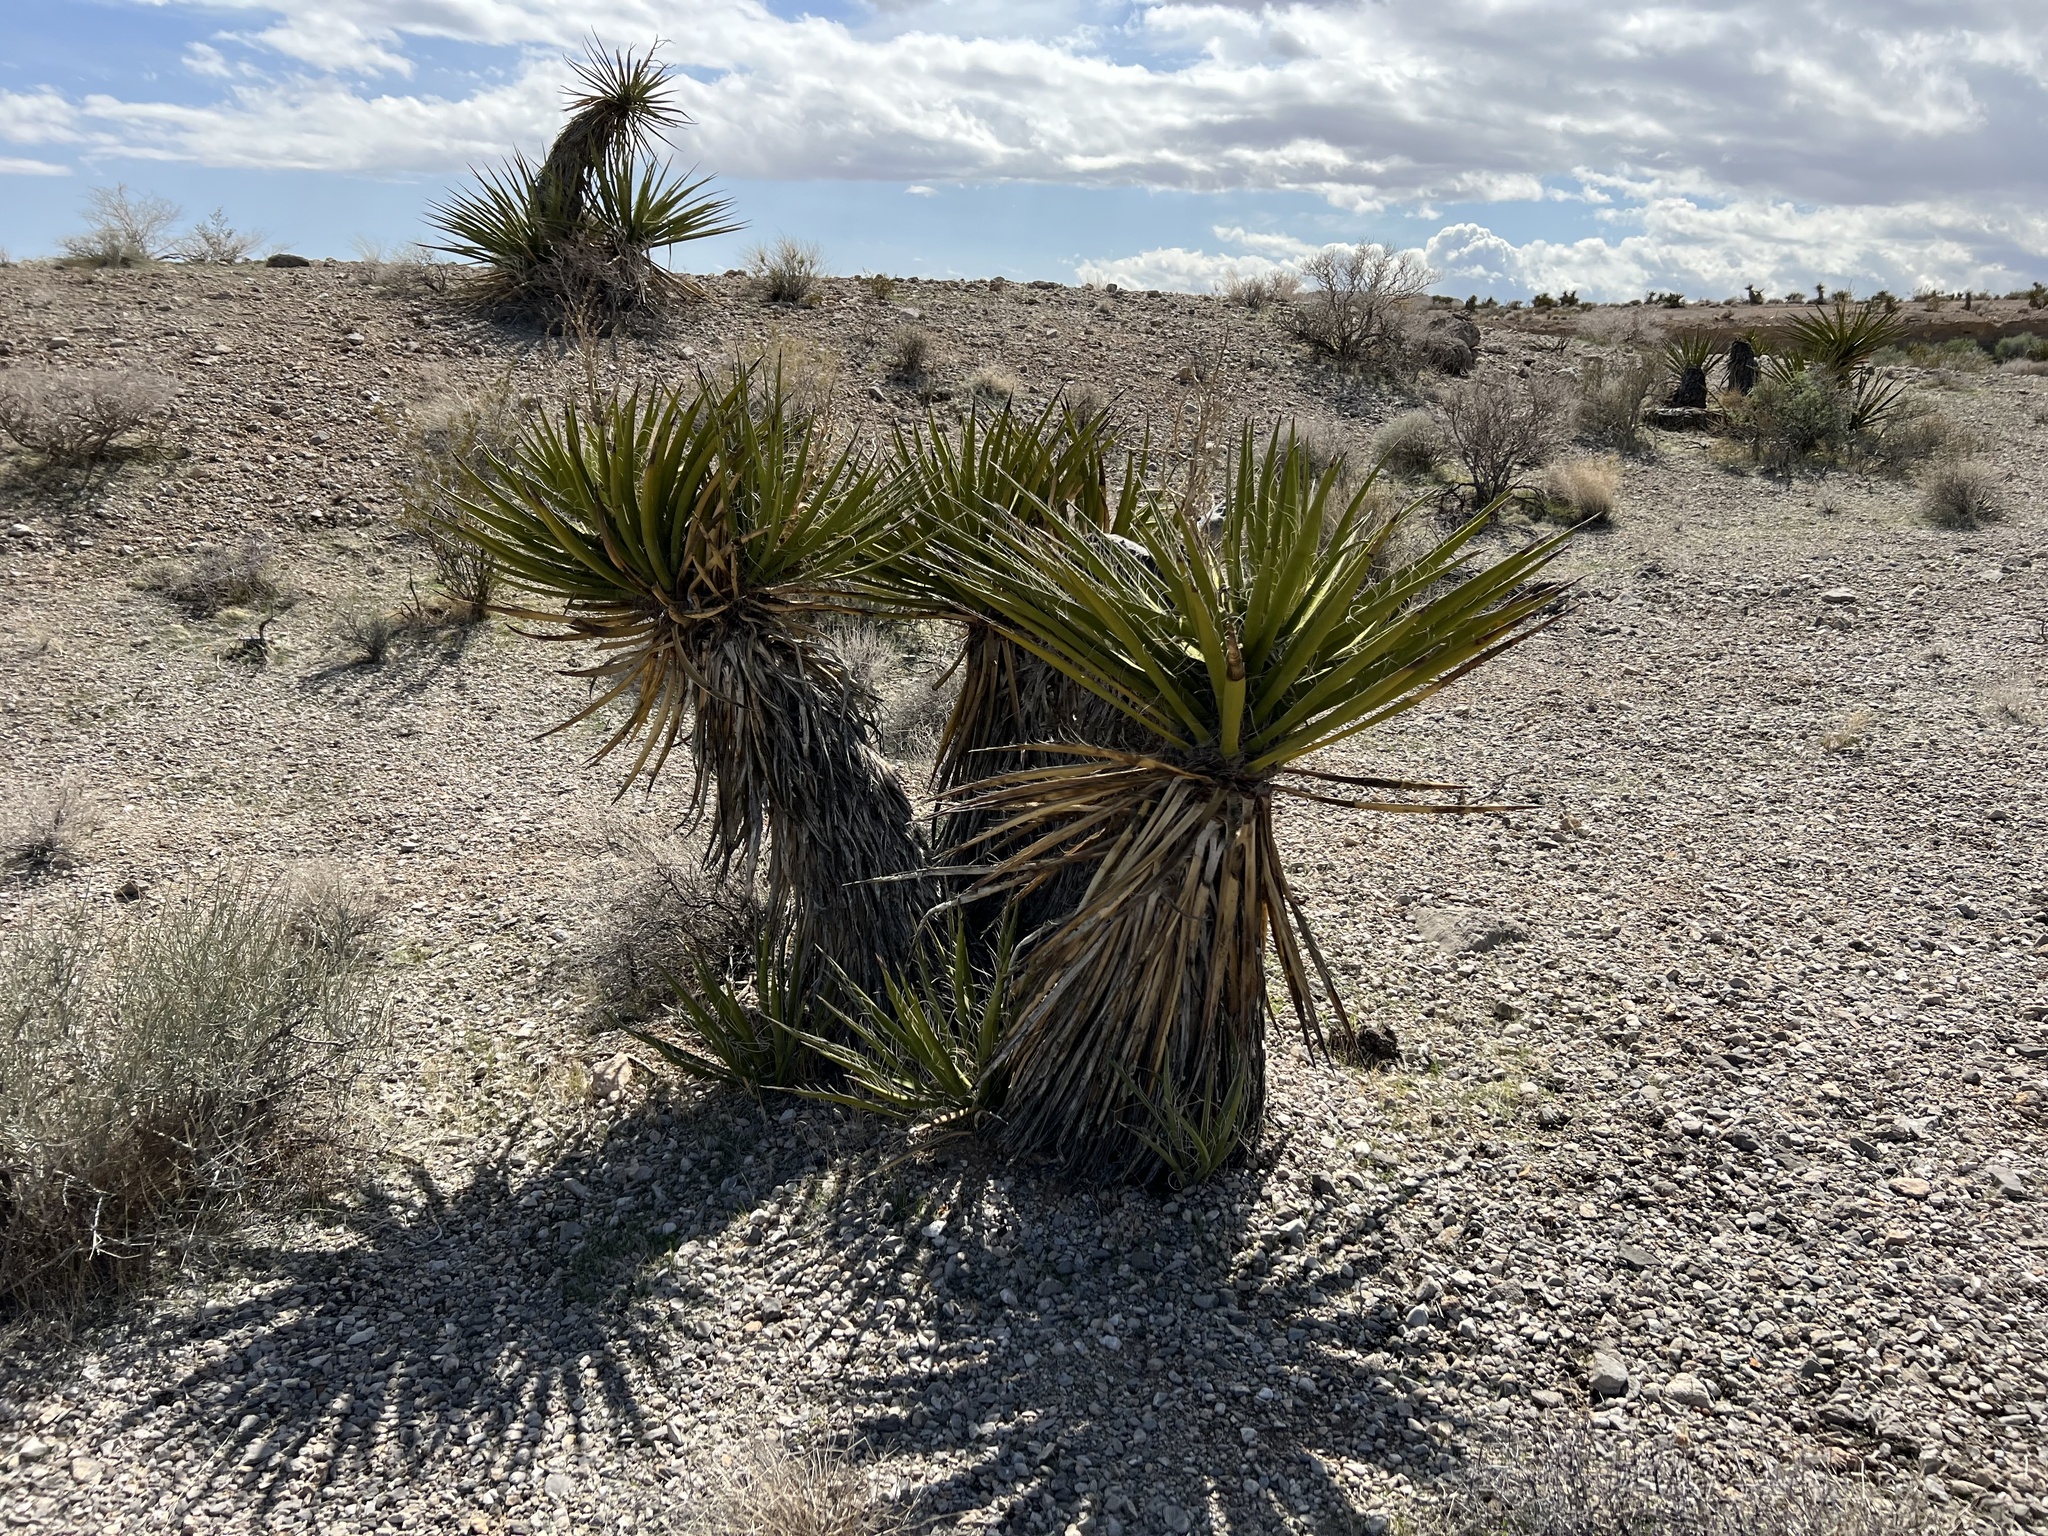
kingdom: Plantae
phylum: Tracheophyta
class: Liliopsida
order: Asparagales
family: Asparagaceae
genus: Yucca
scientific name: Yucca schidigera
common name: Mojave yucca
